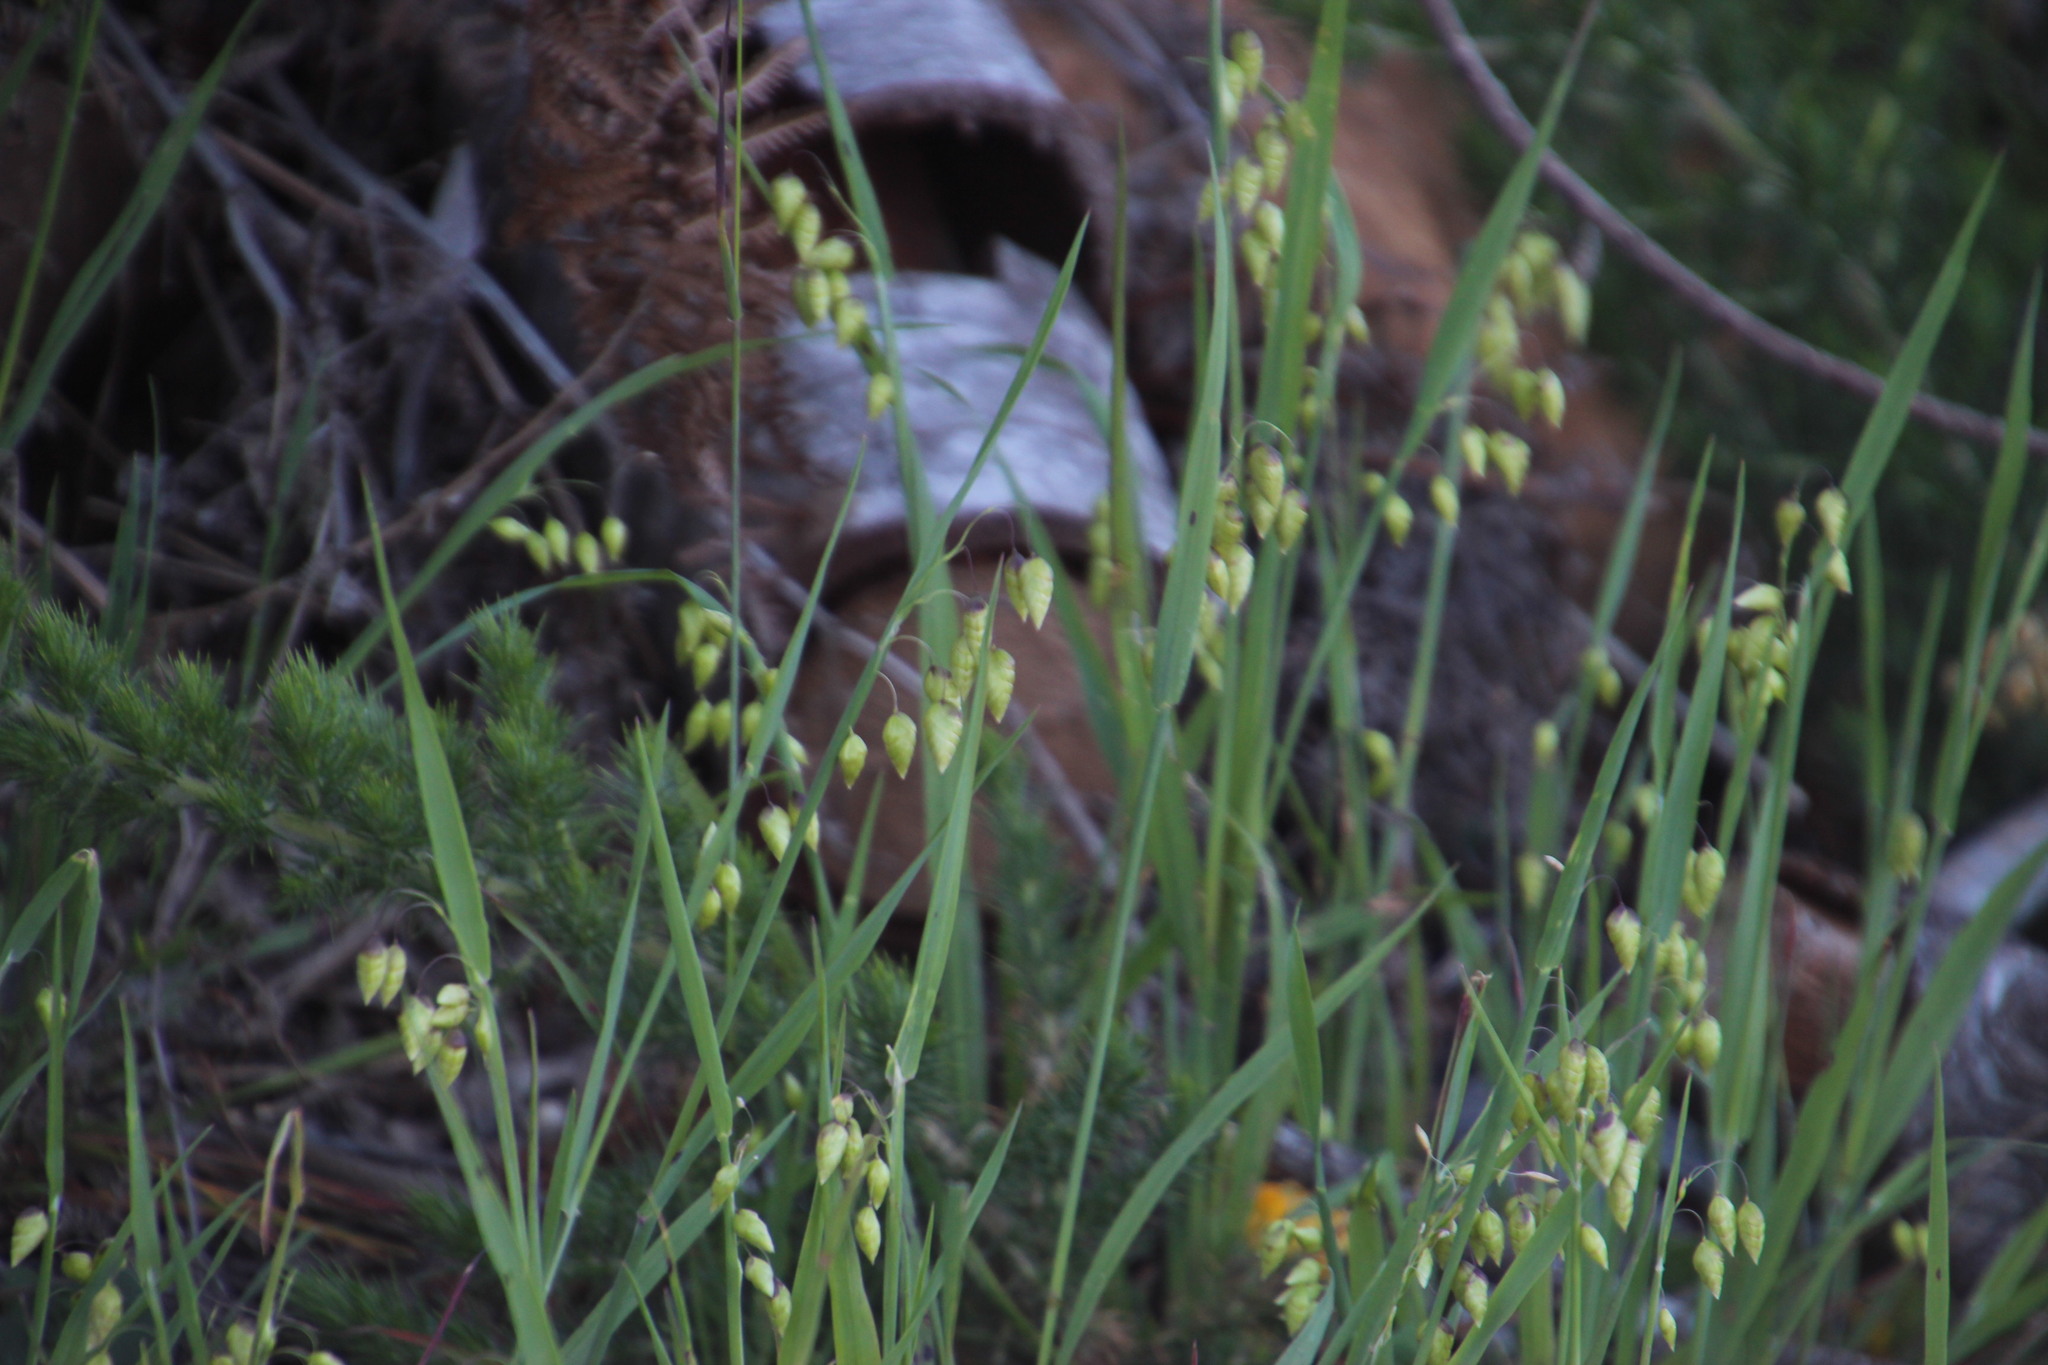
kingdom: Plantae
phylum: Tracheophyta
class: Liliopsida
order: Poales
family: Poaceae
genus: Briza
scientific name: Briza maxima
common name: Big quakinggrass
